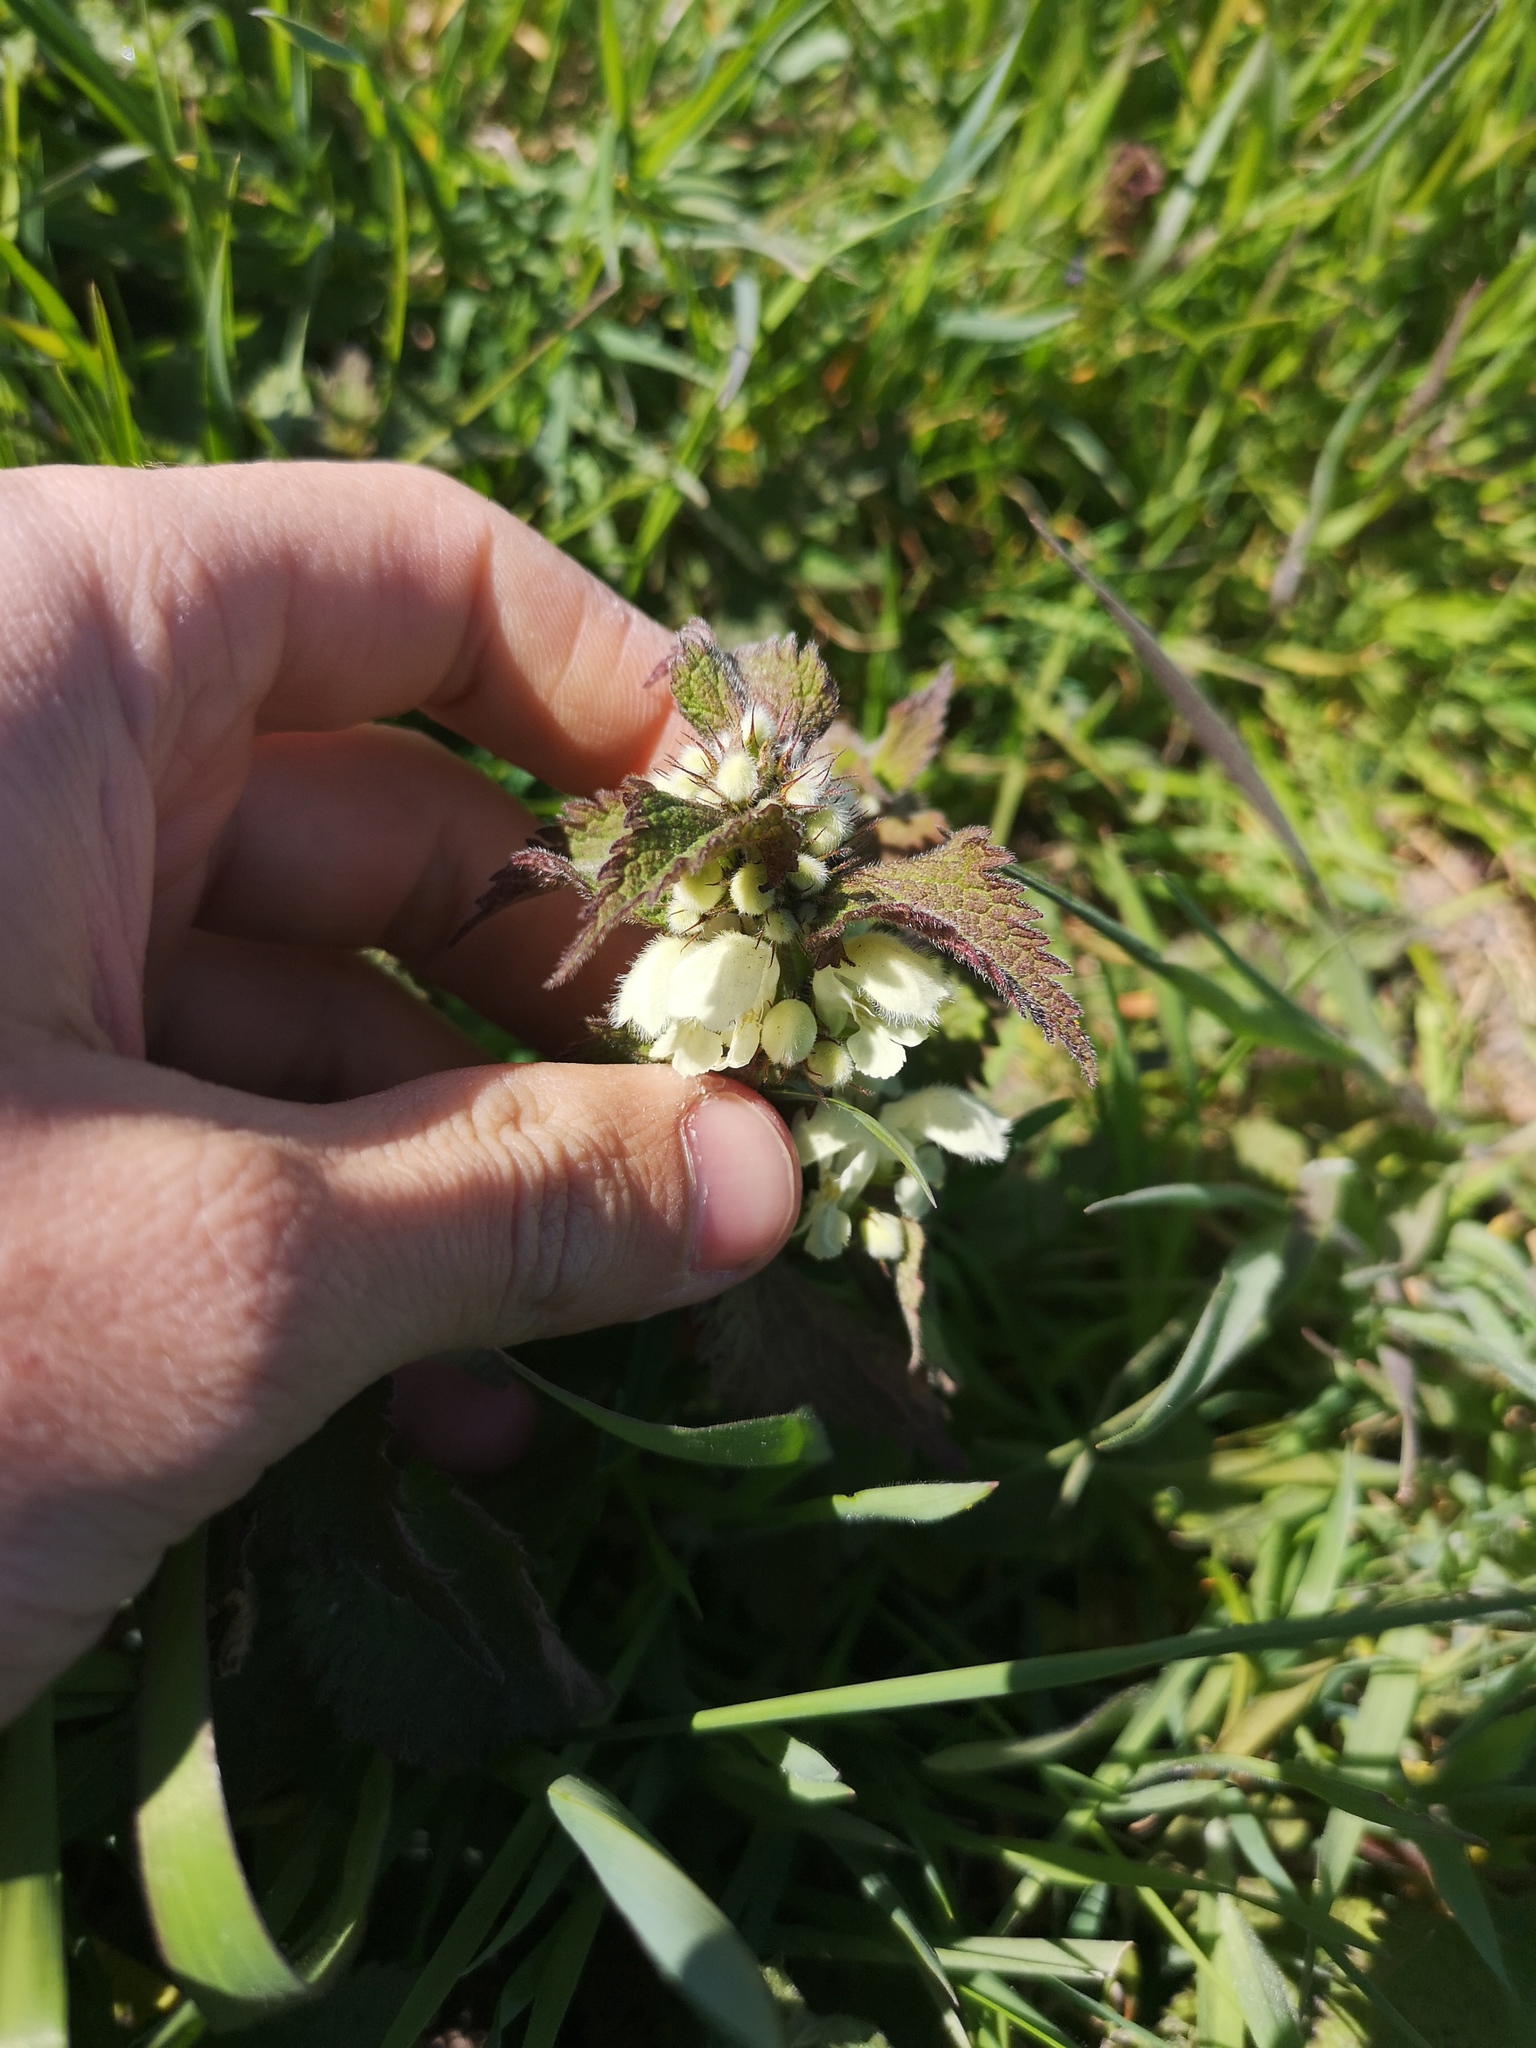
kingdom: Plantae
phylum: Tracheophyta
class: Magnoliopsida
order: Lamiales
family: Lamiaceae
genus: Lamium
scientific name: Lamium album
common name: White dead-nettle
